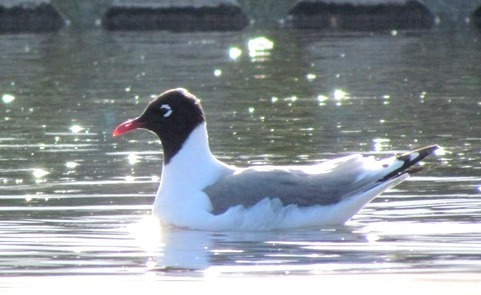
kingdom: Animalia
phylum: Chordata
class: Aves
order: Charadriiformes
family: Laridae
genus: Leucophaeus
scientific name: Leucophaeus pipixcan
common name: Franklin's gull
